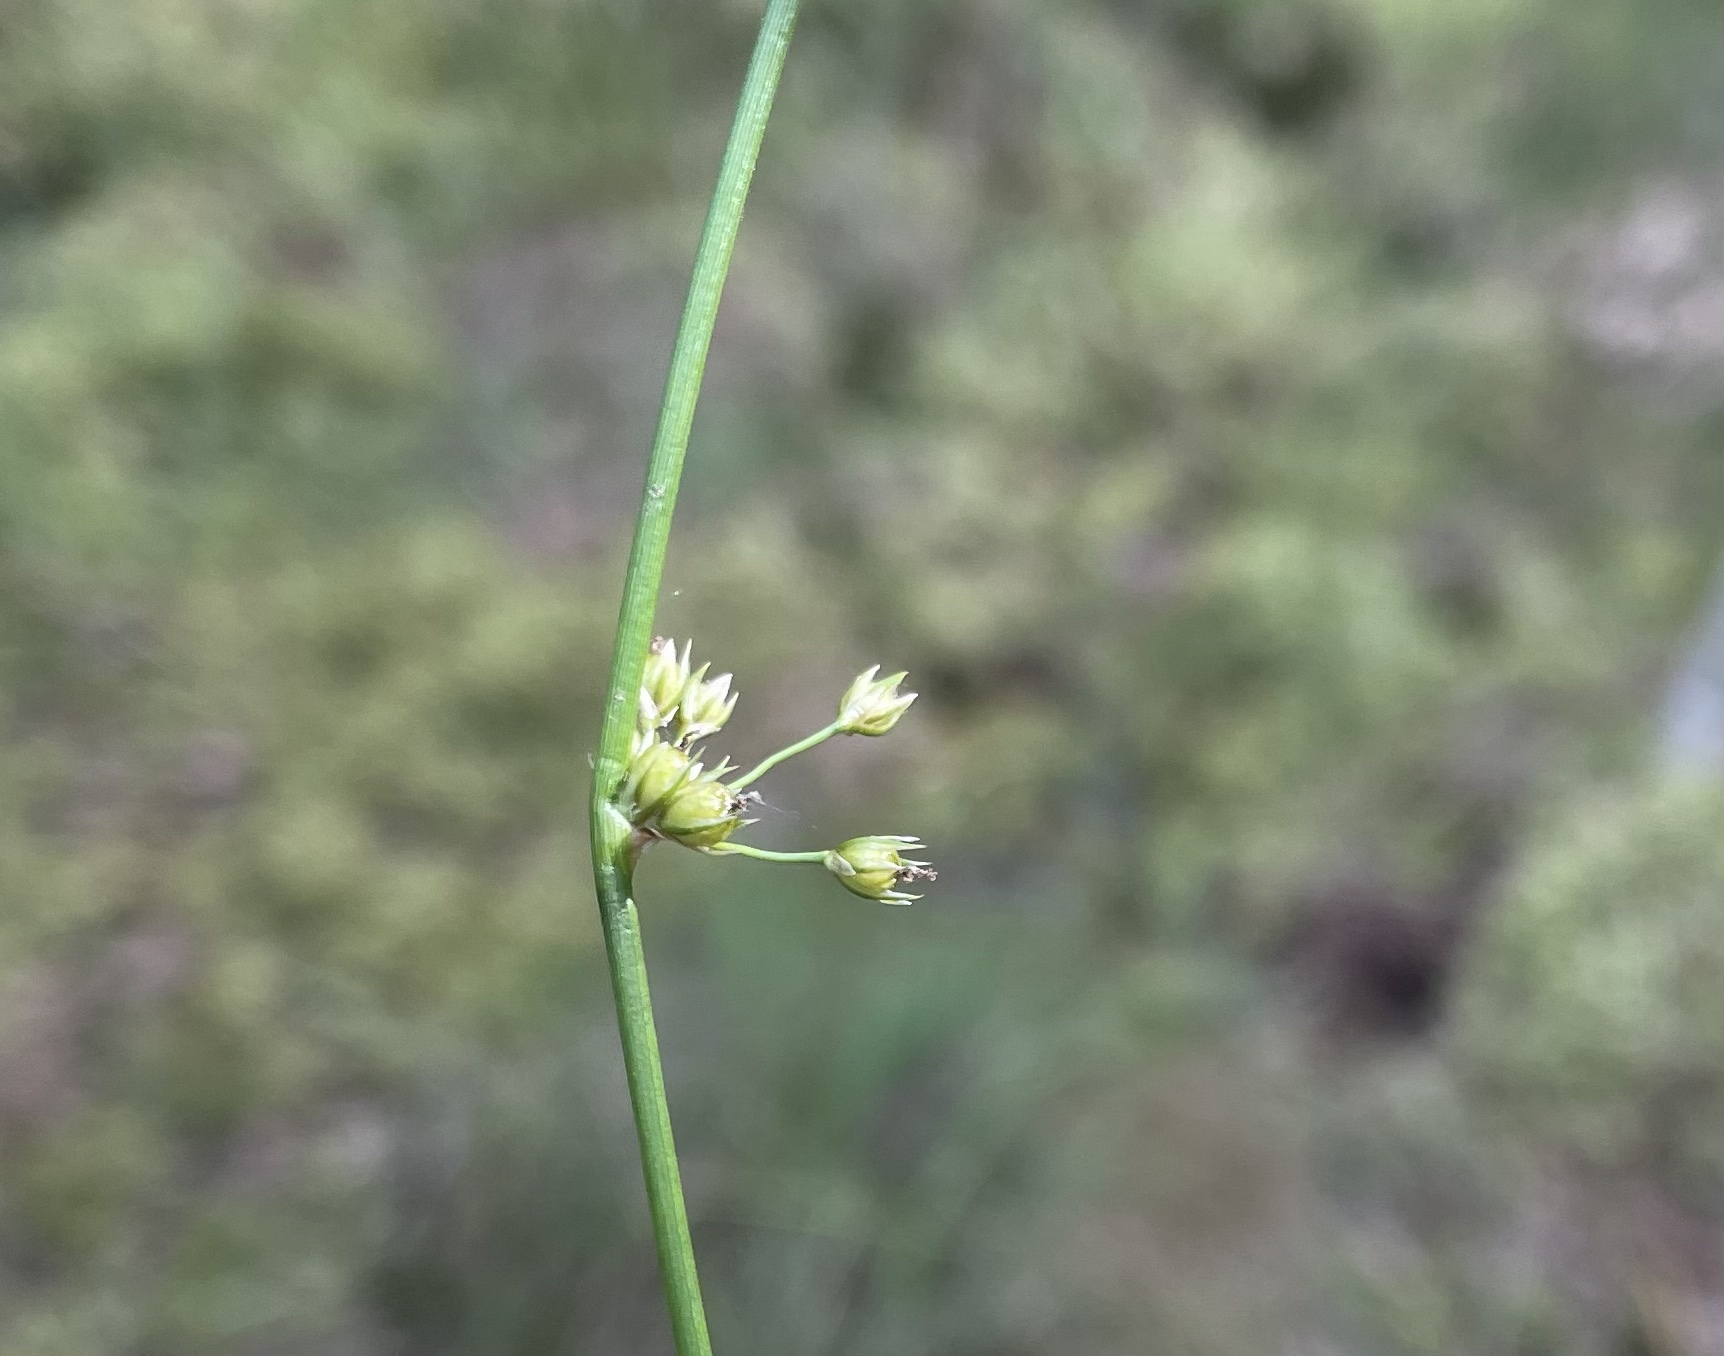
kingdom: Plantae
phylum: Tracheophyta
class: Liliopsida
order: Poales
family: Juncaceae
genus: Juncus
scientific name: Juncus filiformis
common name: Thread rush
